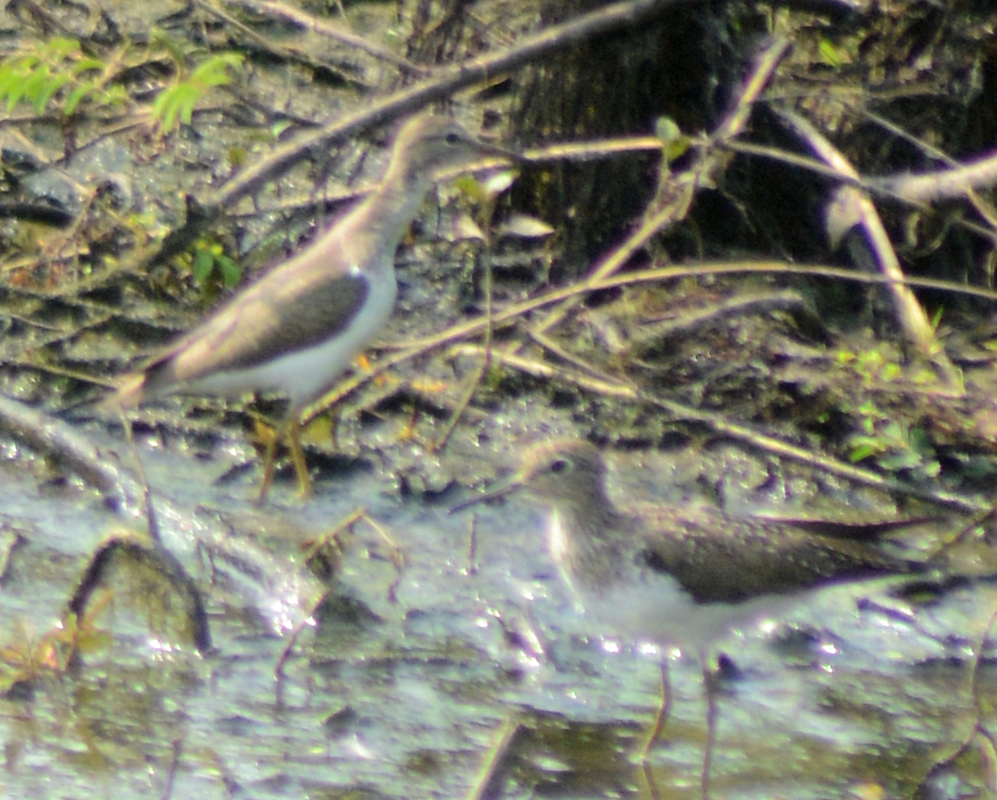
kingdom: Animalia
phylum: Chordata
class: Aves
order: Charadriiformes
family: Scolopacidae
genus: Tringa
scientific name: Tringa solitaria
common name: Solitary sandpiper
